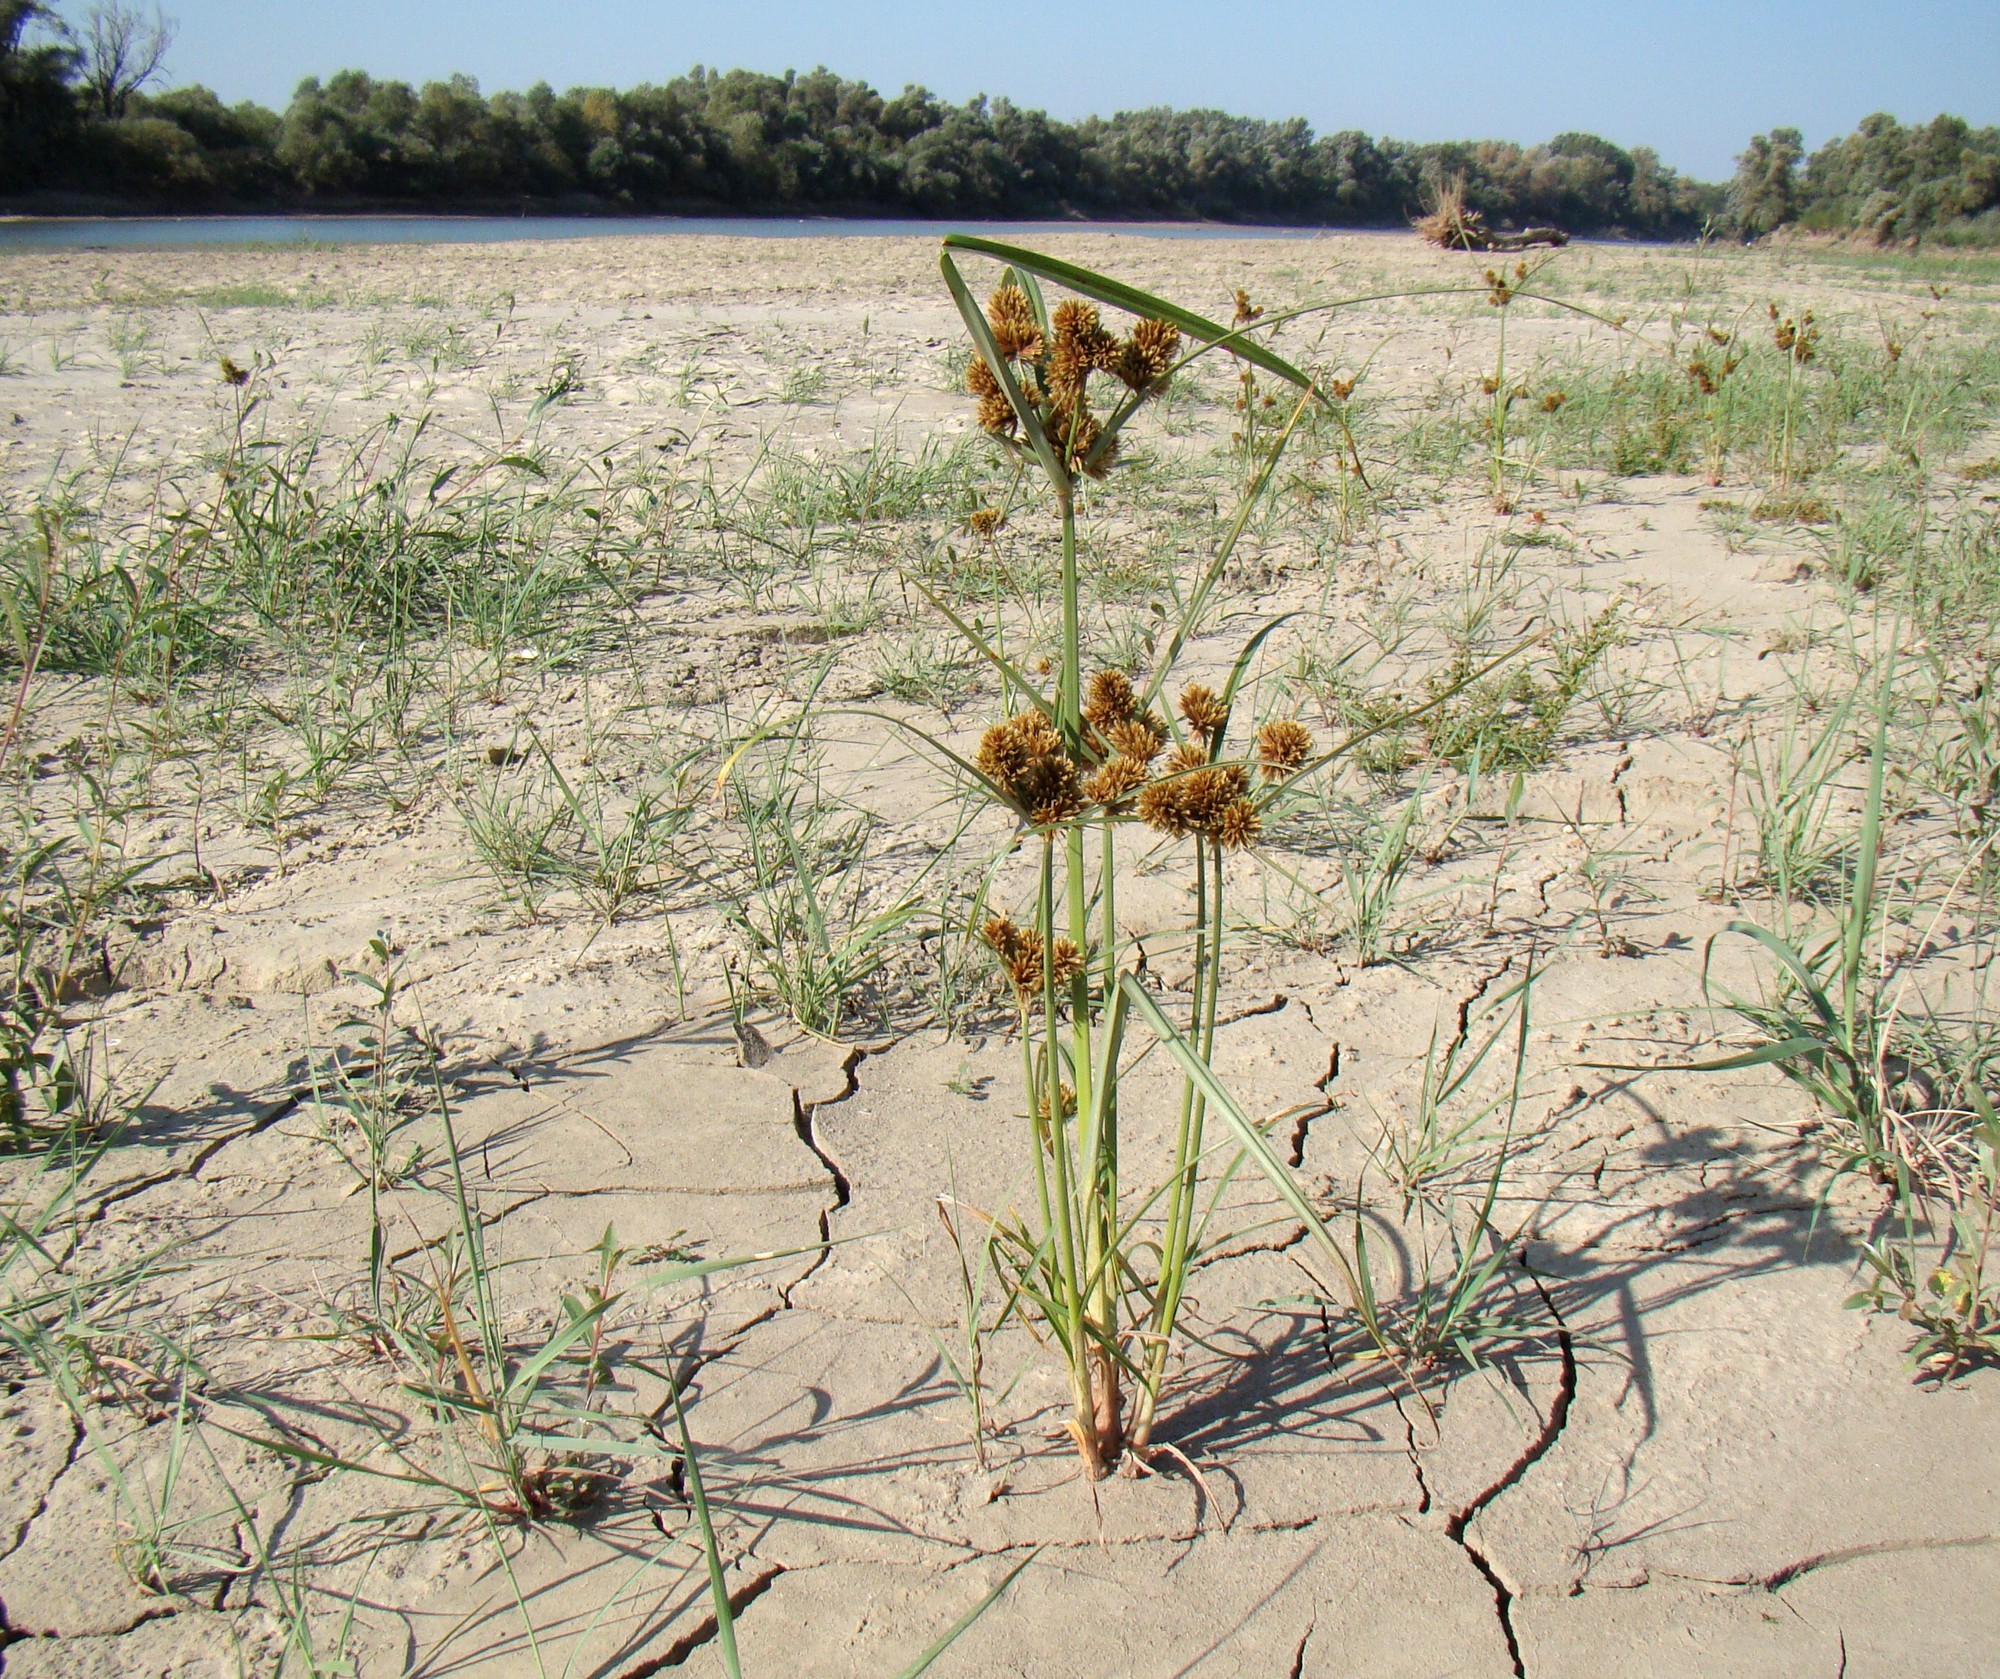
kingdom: Plantae
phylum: Tracheophyta
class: Liliopsida
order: Poales
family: Cyperaceae
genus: Cyperus
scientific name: Cyperus glomeratus
